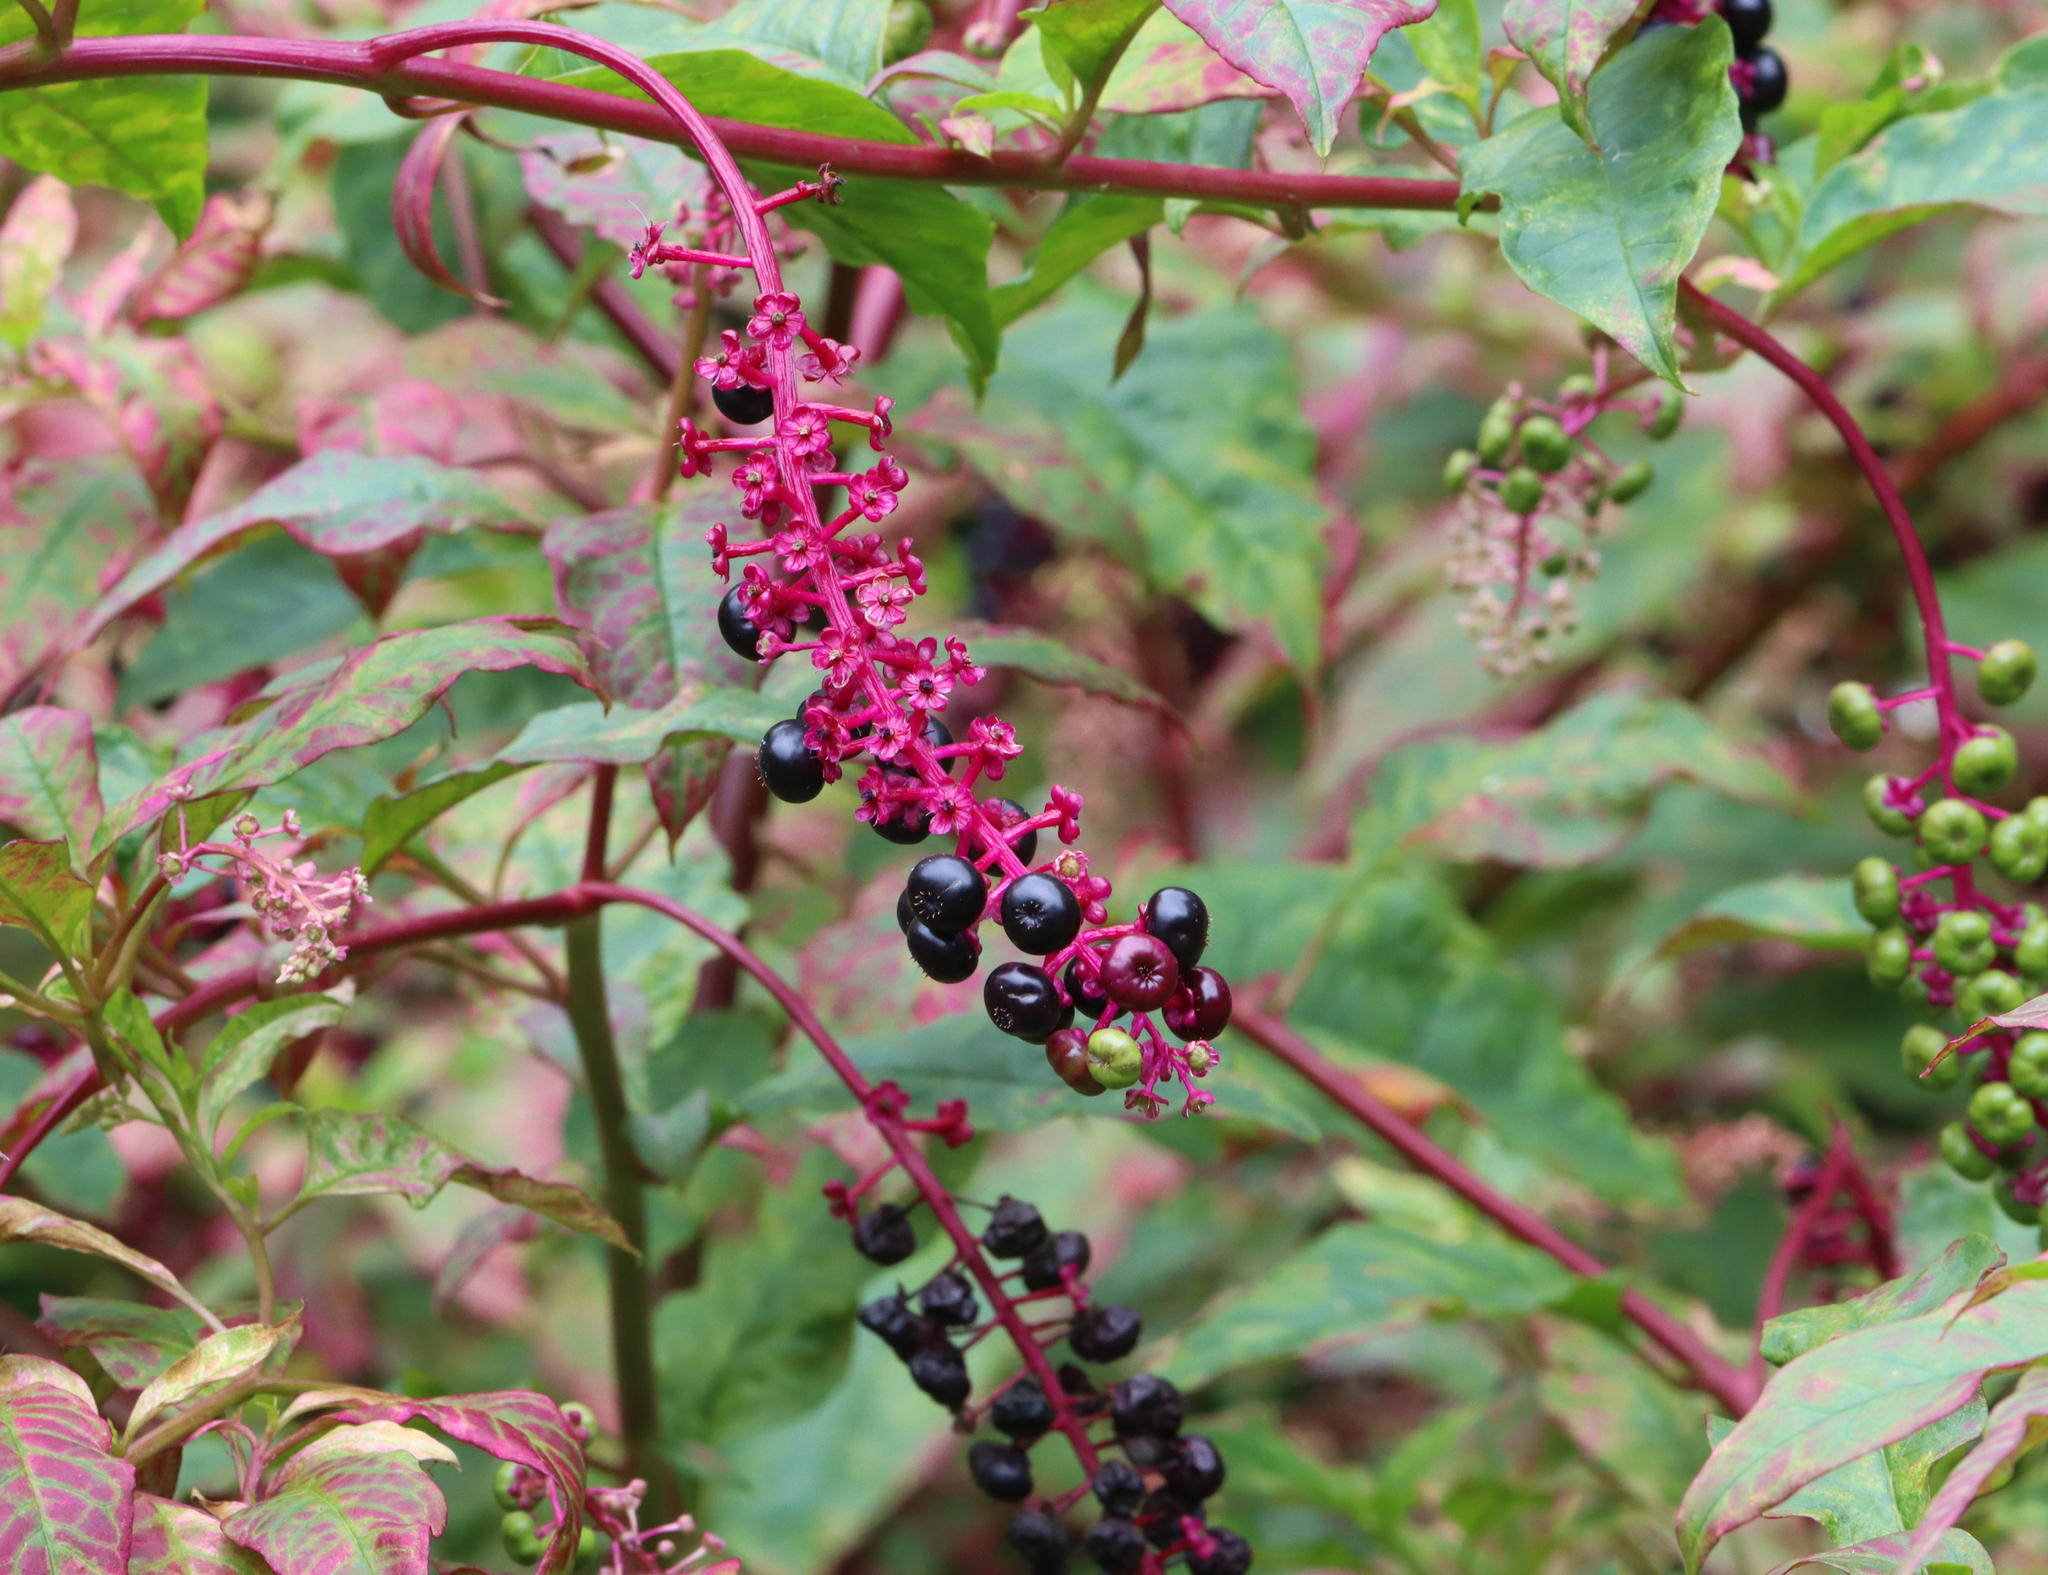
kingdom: Plantae
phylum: Tracheophyta
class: Magnoliopsida
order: Caryophyllales
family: Phytolaccaceae
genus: Phytolacca
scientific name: Phytolacca americana
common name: American pokeweed
